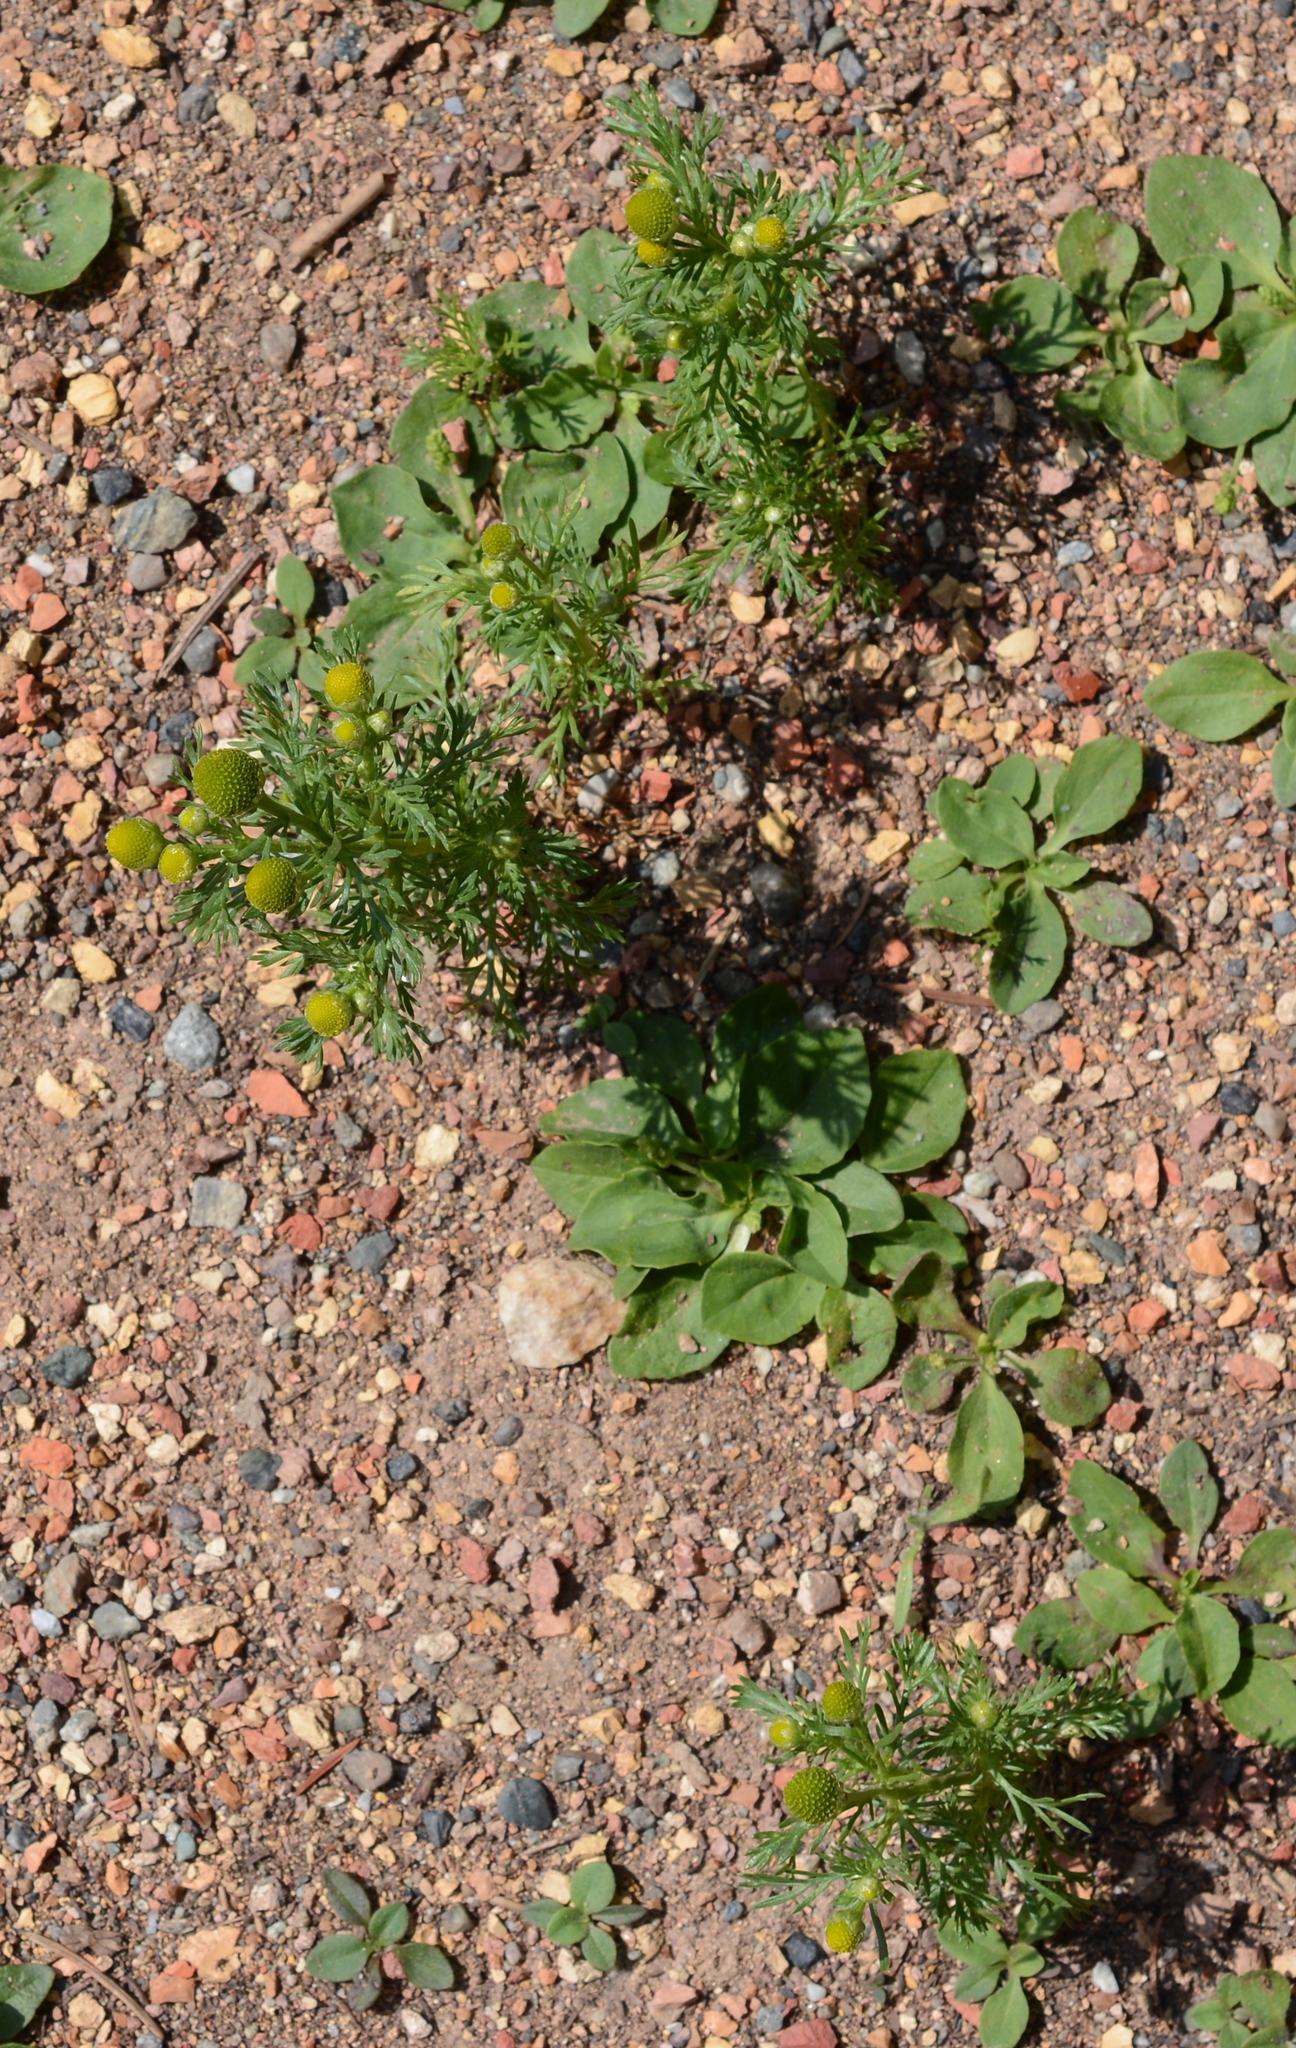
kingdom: Plantae
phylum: Tracheophyta
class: Magnoliopsida
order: Asterales
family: Asteraceae
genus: Matricaria
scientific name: Matricaria discoidea
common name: Disc mayweed
